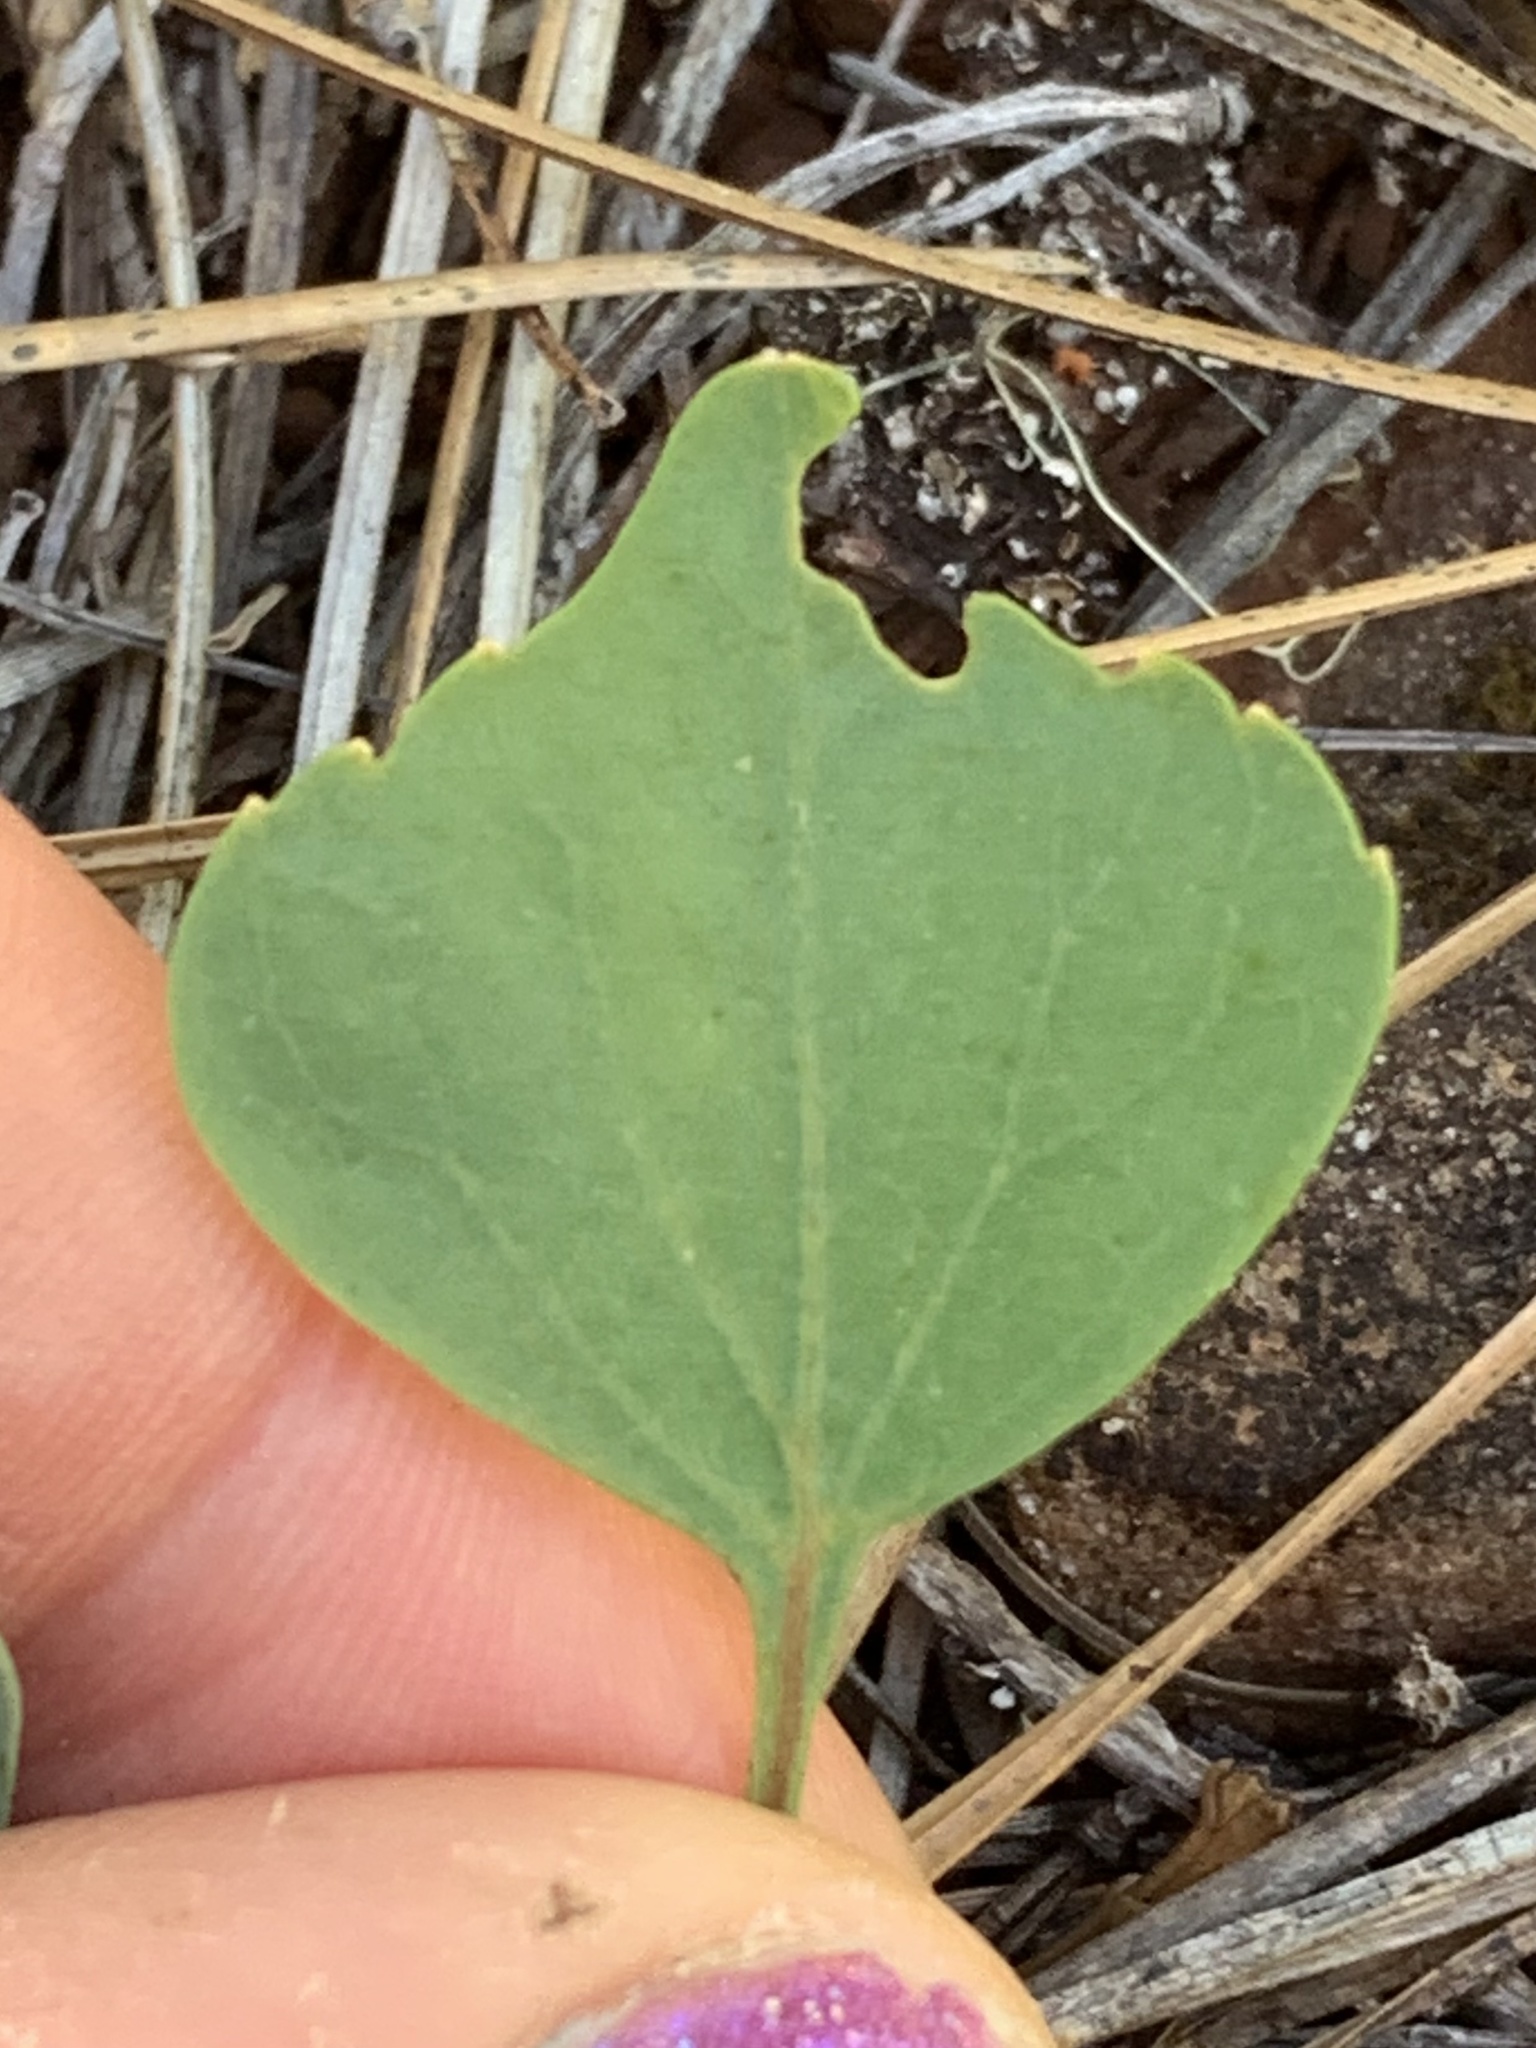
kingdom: Plantae
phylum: Tracheophyta
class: Magnoliopsida
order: Malpighiales
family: Violaceae
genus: Viola
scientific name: Viola lobata
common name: Pine violet
